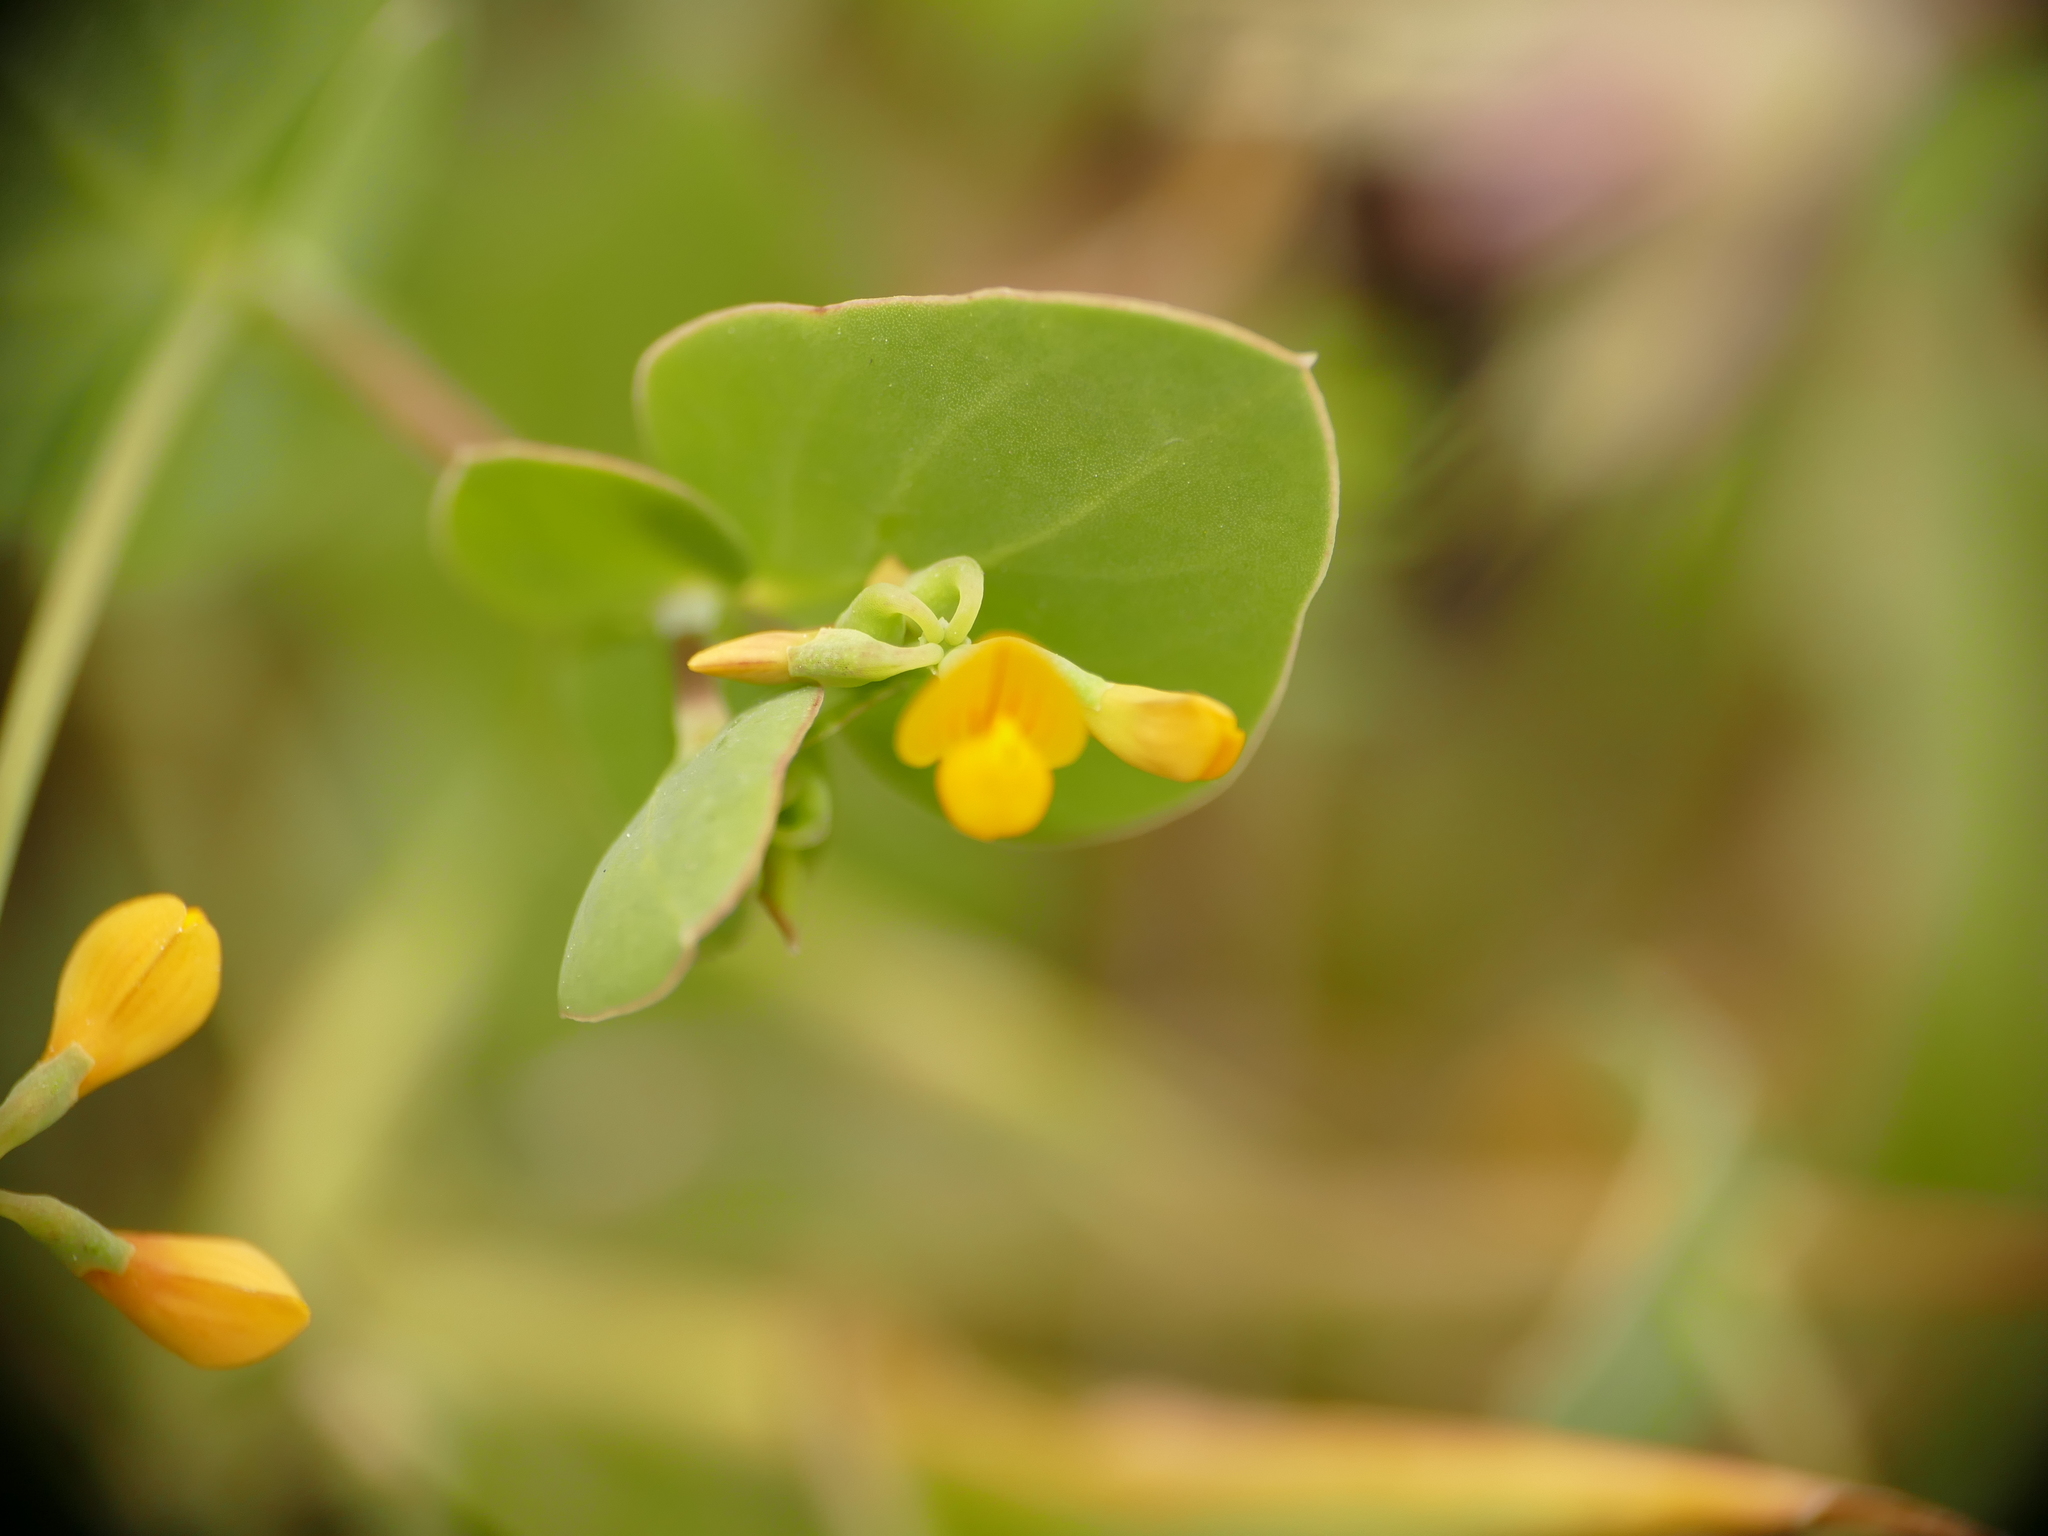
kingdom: Plantae
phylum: Tracheophyta
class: Magnoliopsida
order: Fabales
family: Fabaceae
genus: Coronilla
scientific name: Coronilla scorpioides
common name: Annual scorpion-vetch
